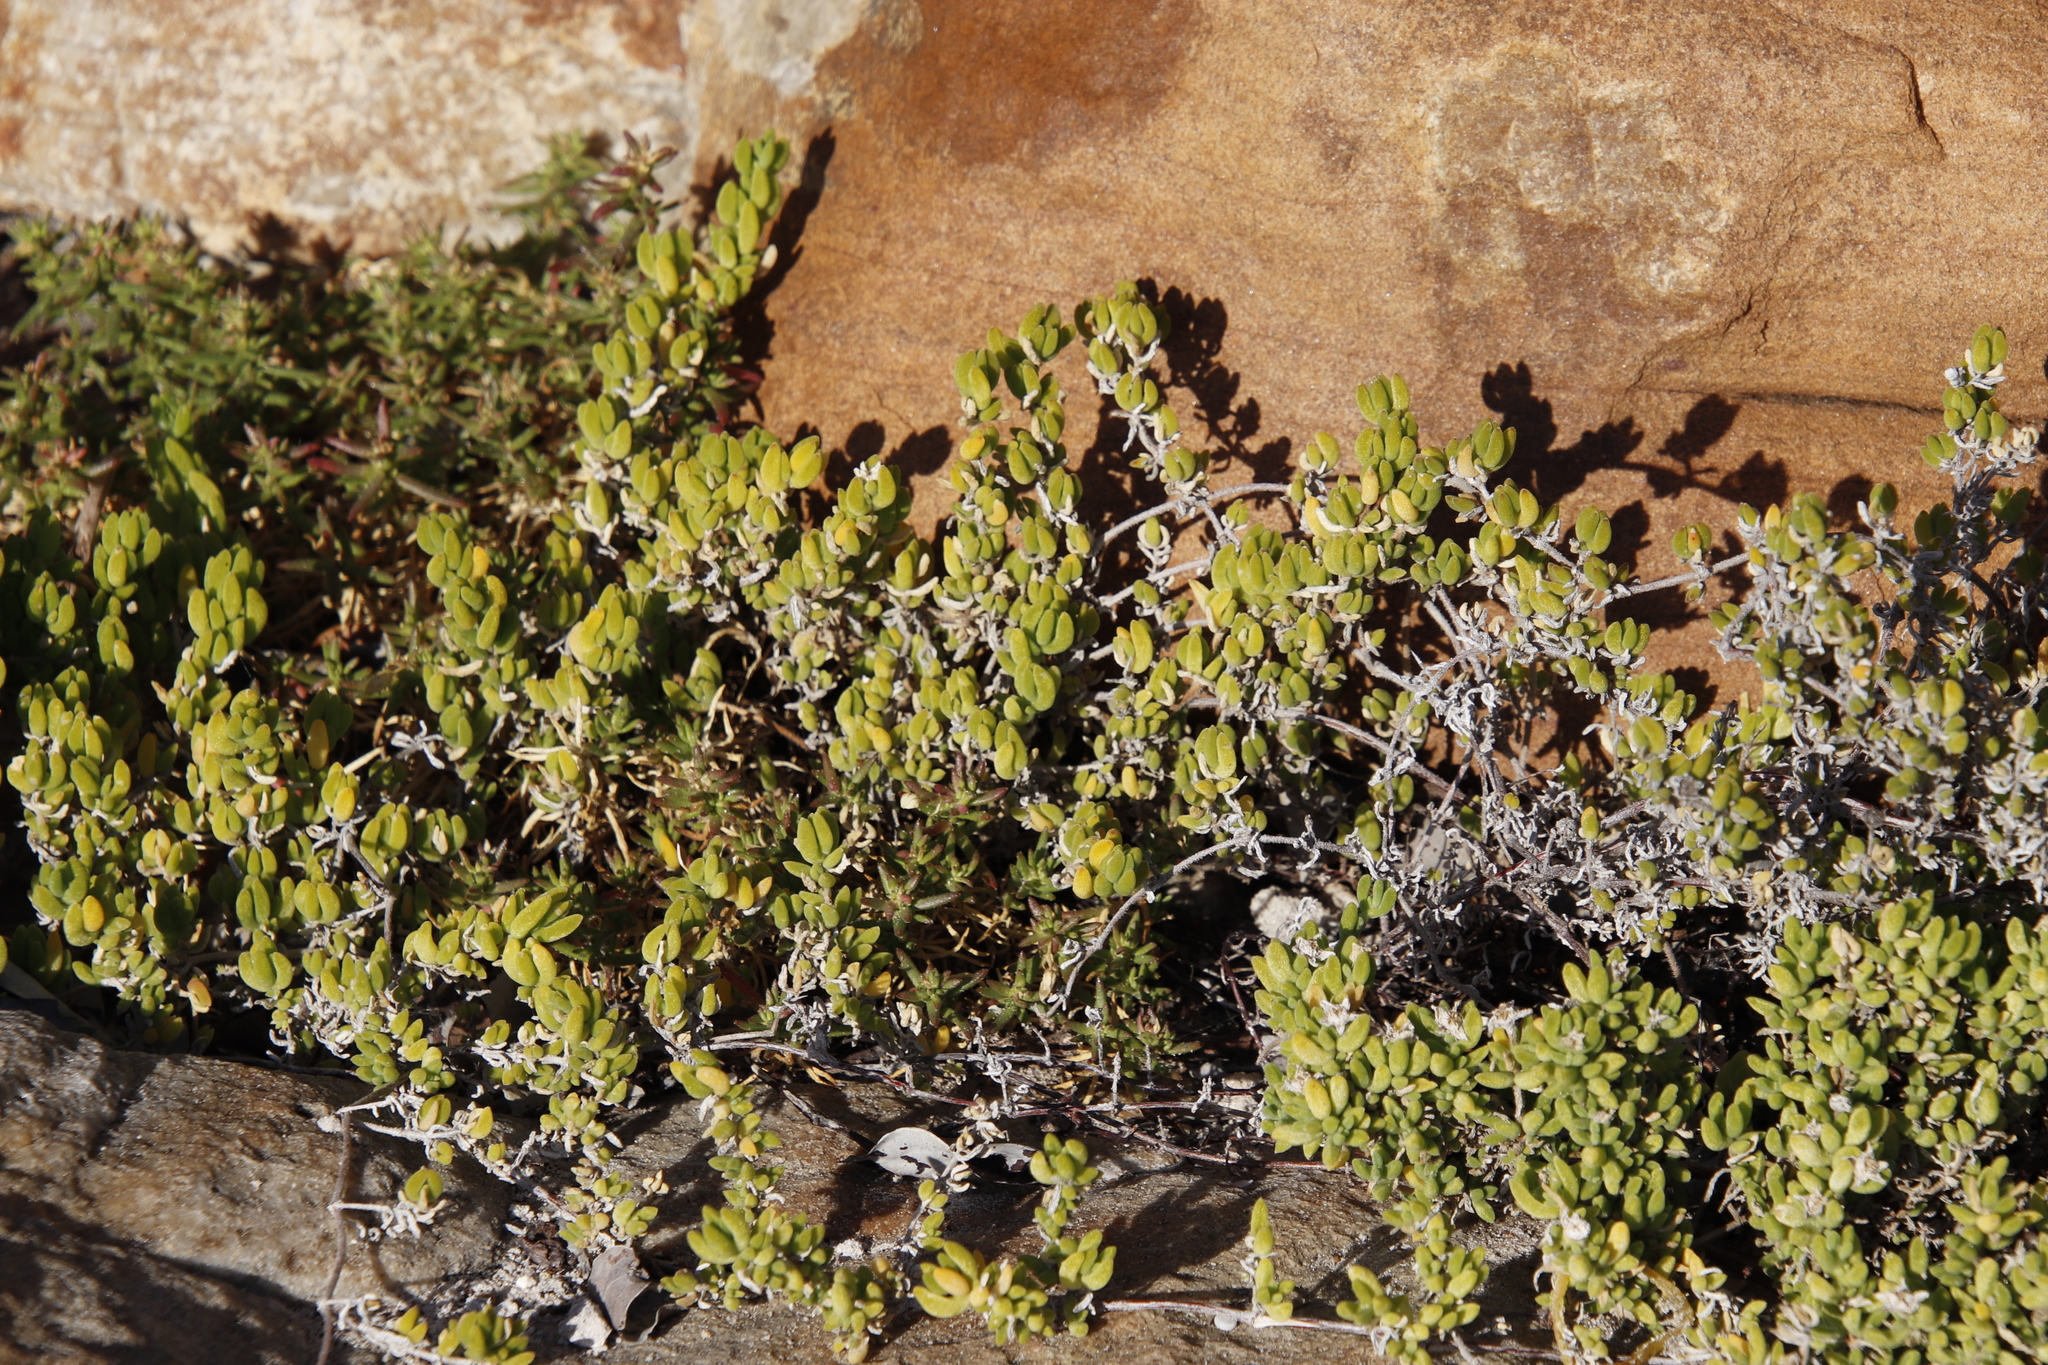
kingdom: Plantae
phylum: Tracheophyta
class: Magnoliopsida
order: Caryophyllales
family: Aizoaceae
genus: Drosanthemum
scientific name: Drosanthemum candens
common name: Rodondo-creeper
